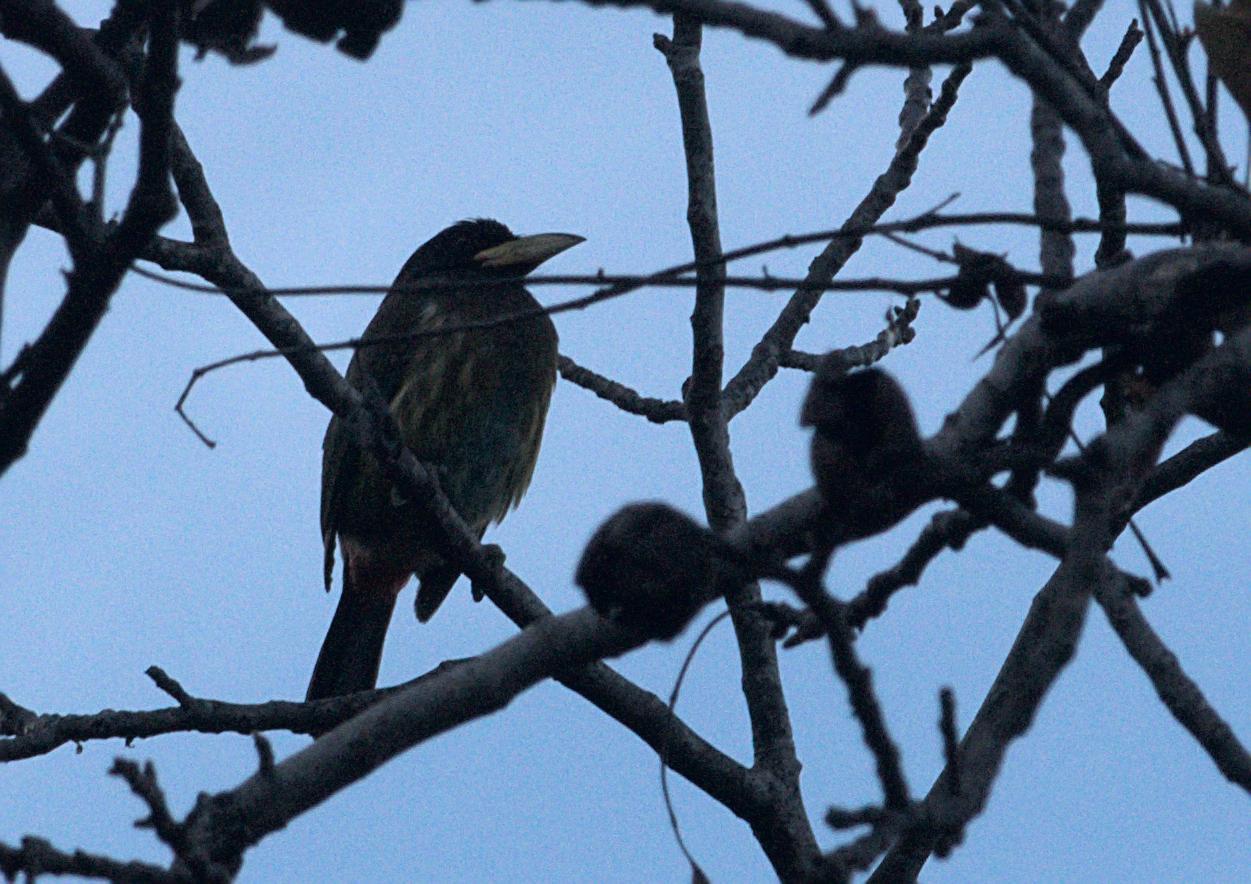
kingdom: Animalia
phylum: Chordata
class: Aves
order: Piciformes
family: Megalaimidae
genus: Psilopogon
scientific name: Psilopogon virens
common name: Great barbet
